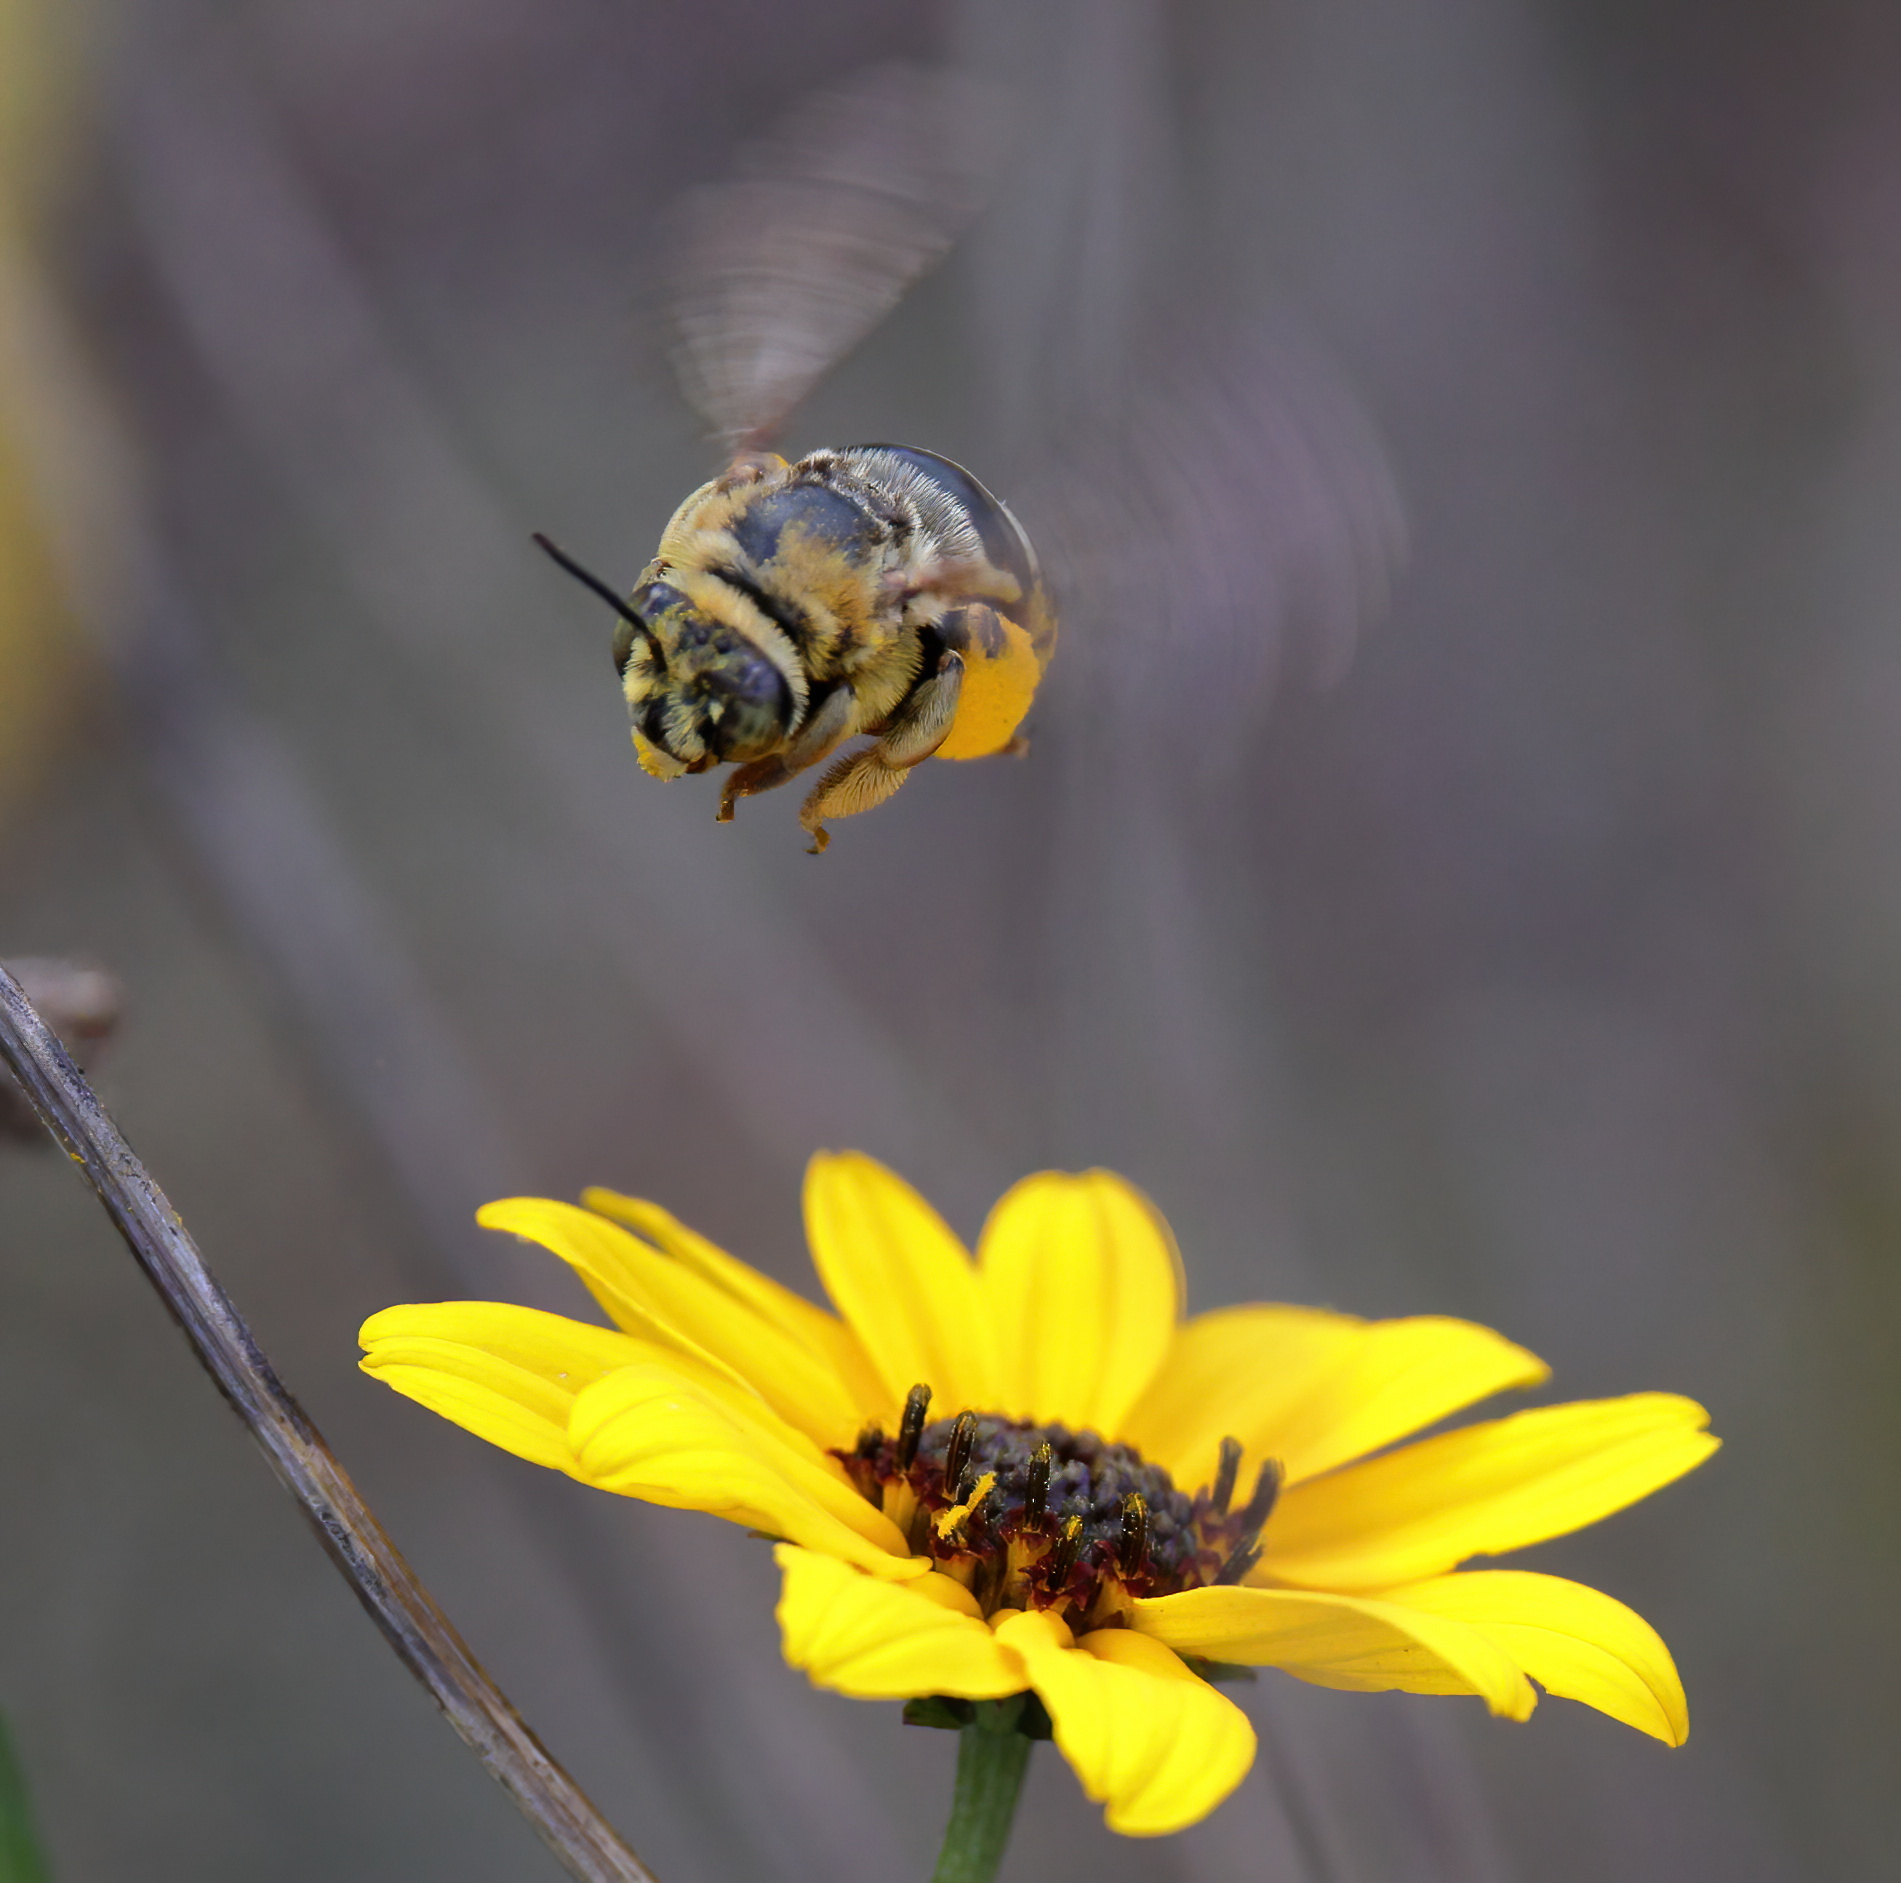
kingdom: Animalia
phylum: Arthropoda
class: Insecta
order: Hymenoptera
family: Apidae
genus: Svastra
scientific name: Svastra aegis
